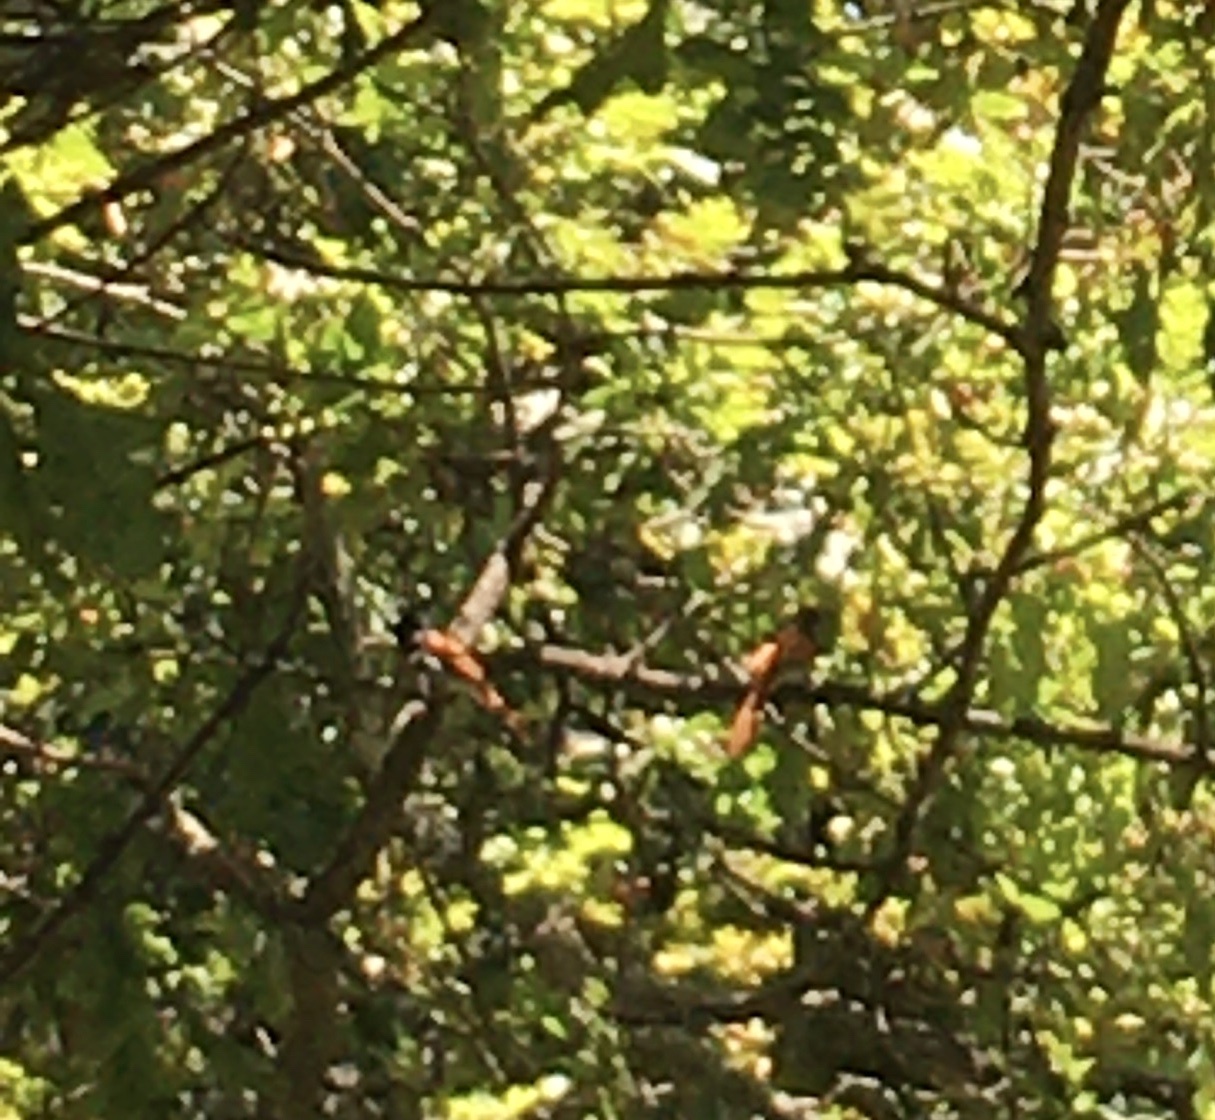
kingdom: Animalia
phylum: Chordata
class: Aves
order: Passeriformes
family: Monarchidae
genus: Terpsiphone
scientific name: Terpsiphone viridis
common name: African paradise flycatcher
